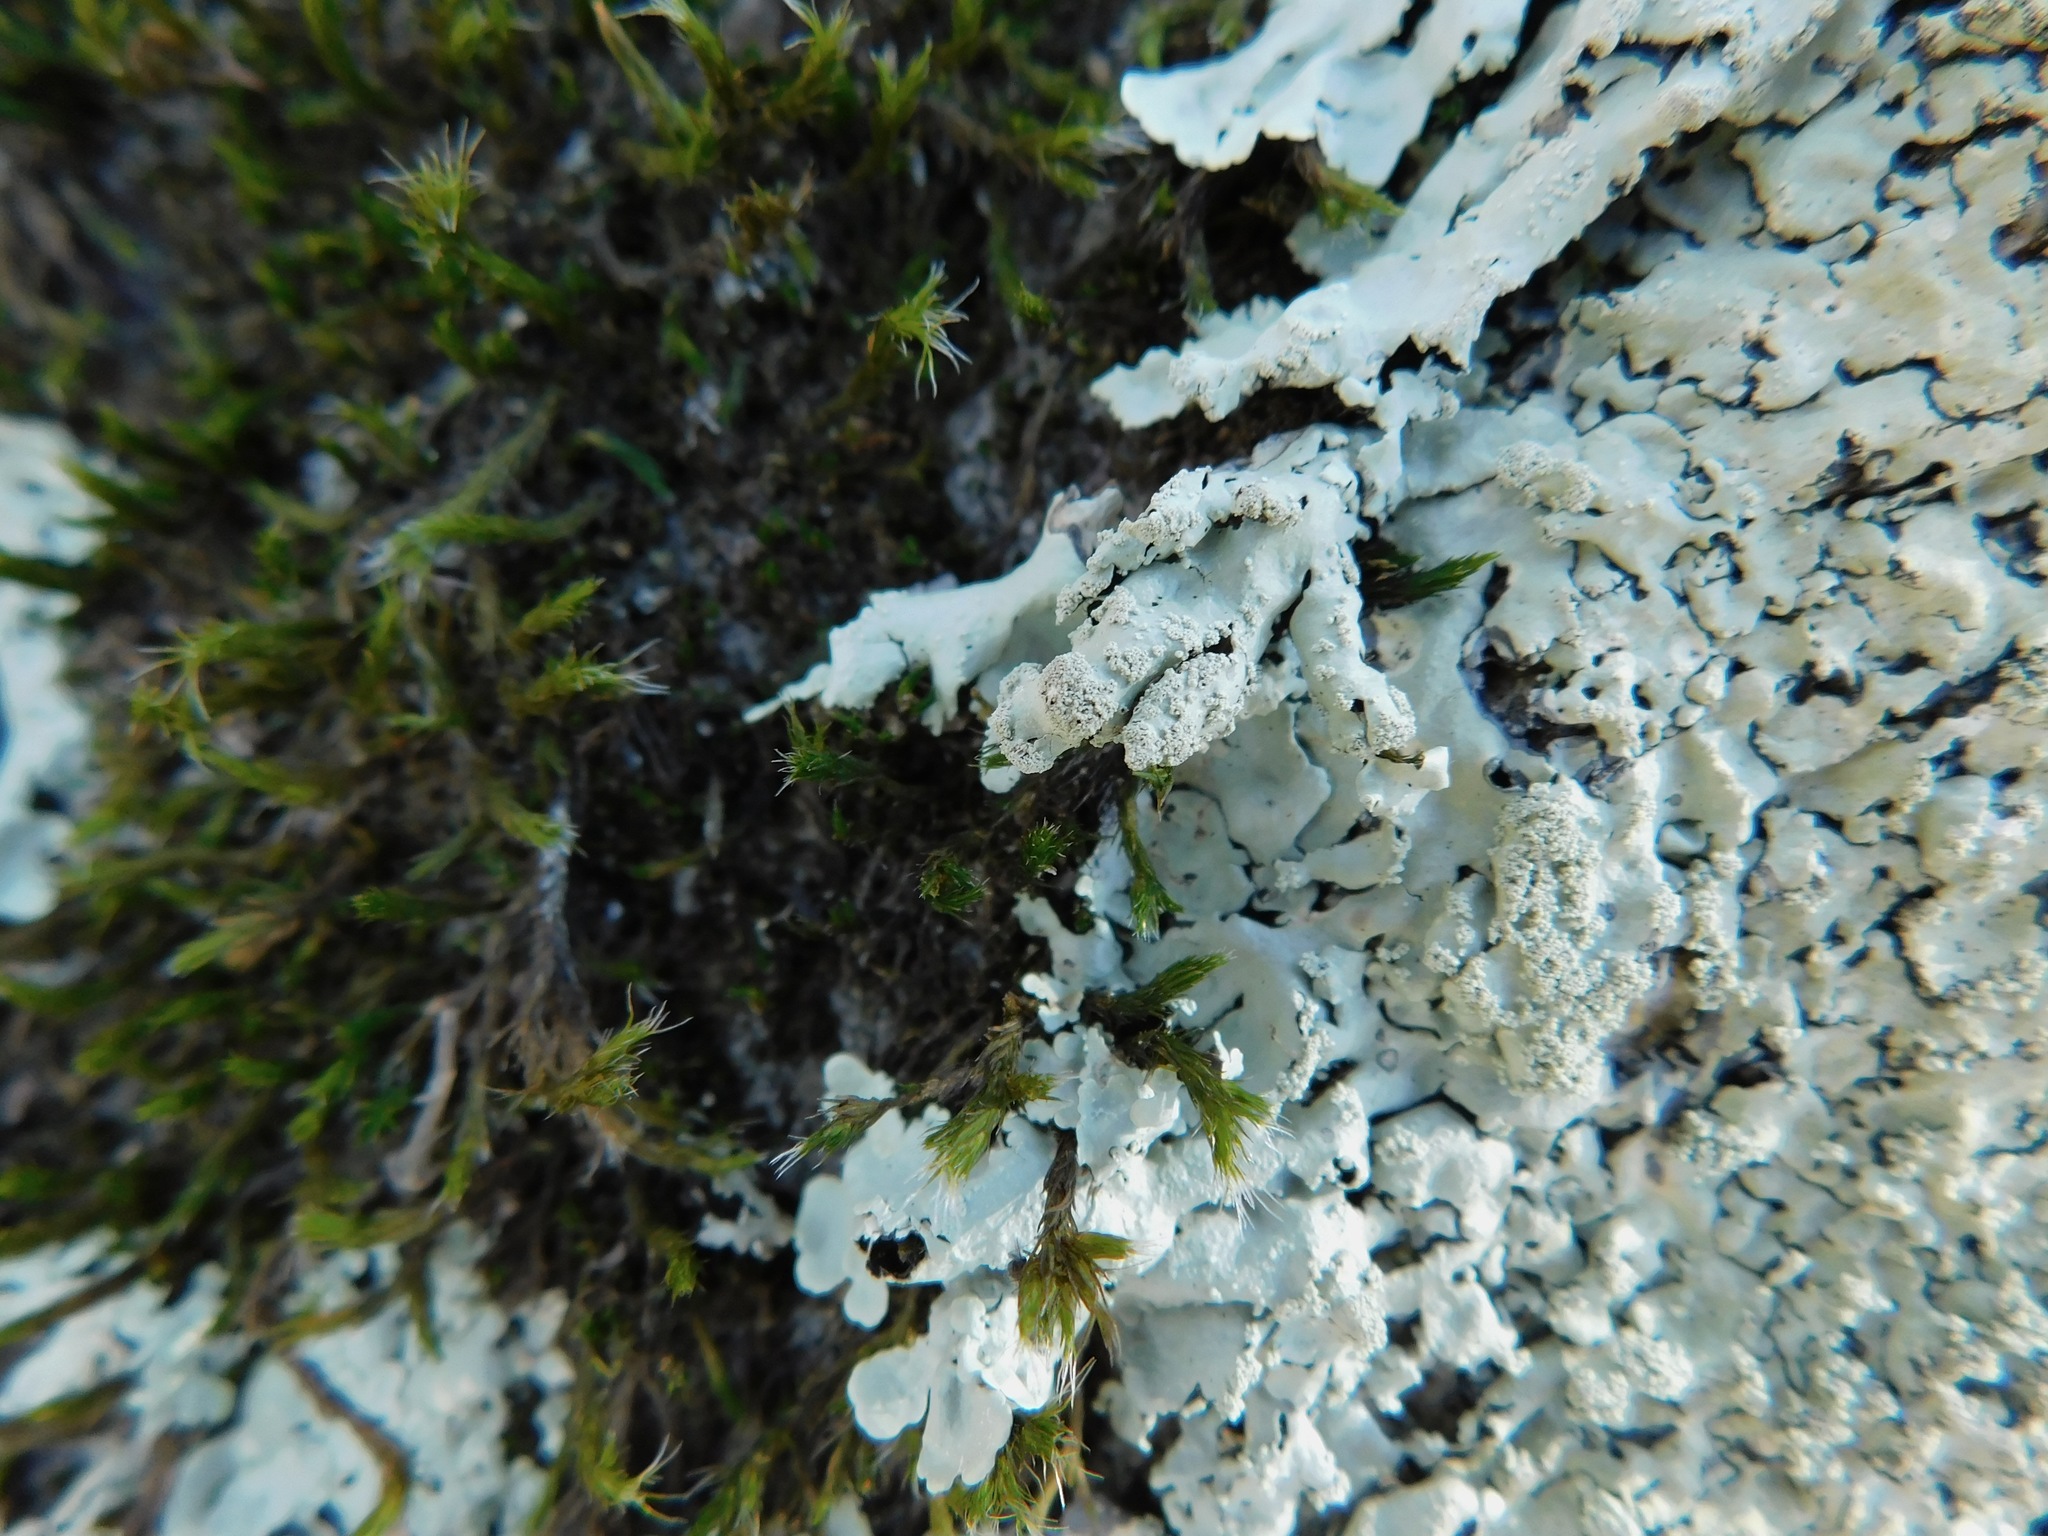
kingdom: Fungi
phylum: Ascomycota
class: Lecanoromycetes
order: Lecanorales
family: Parmeliaceae
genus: Flavoparmelia
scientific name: Flavoparmelia baltimorensis
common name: Rock greenshield
